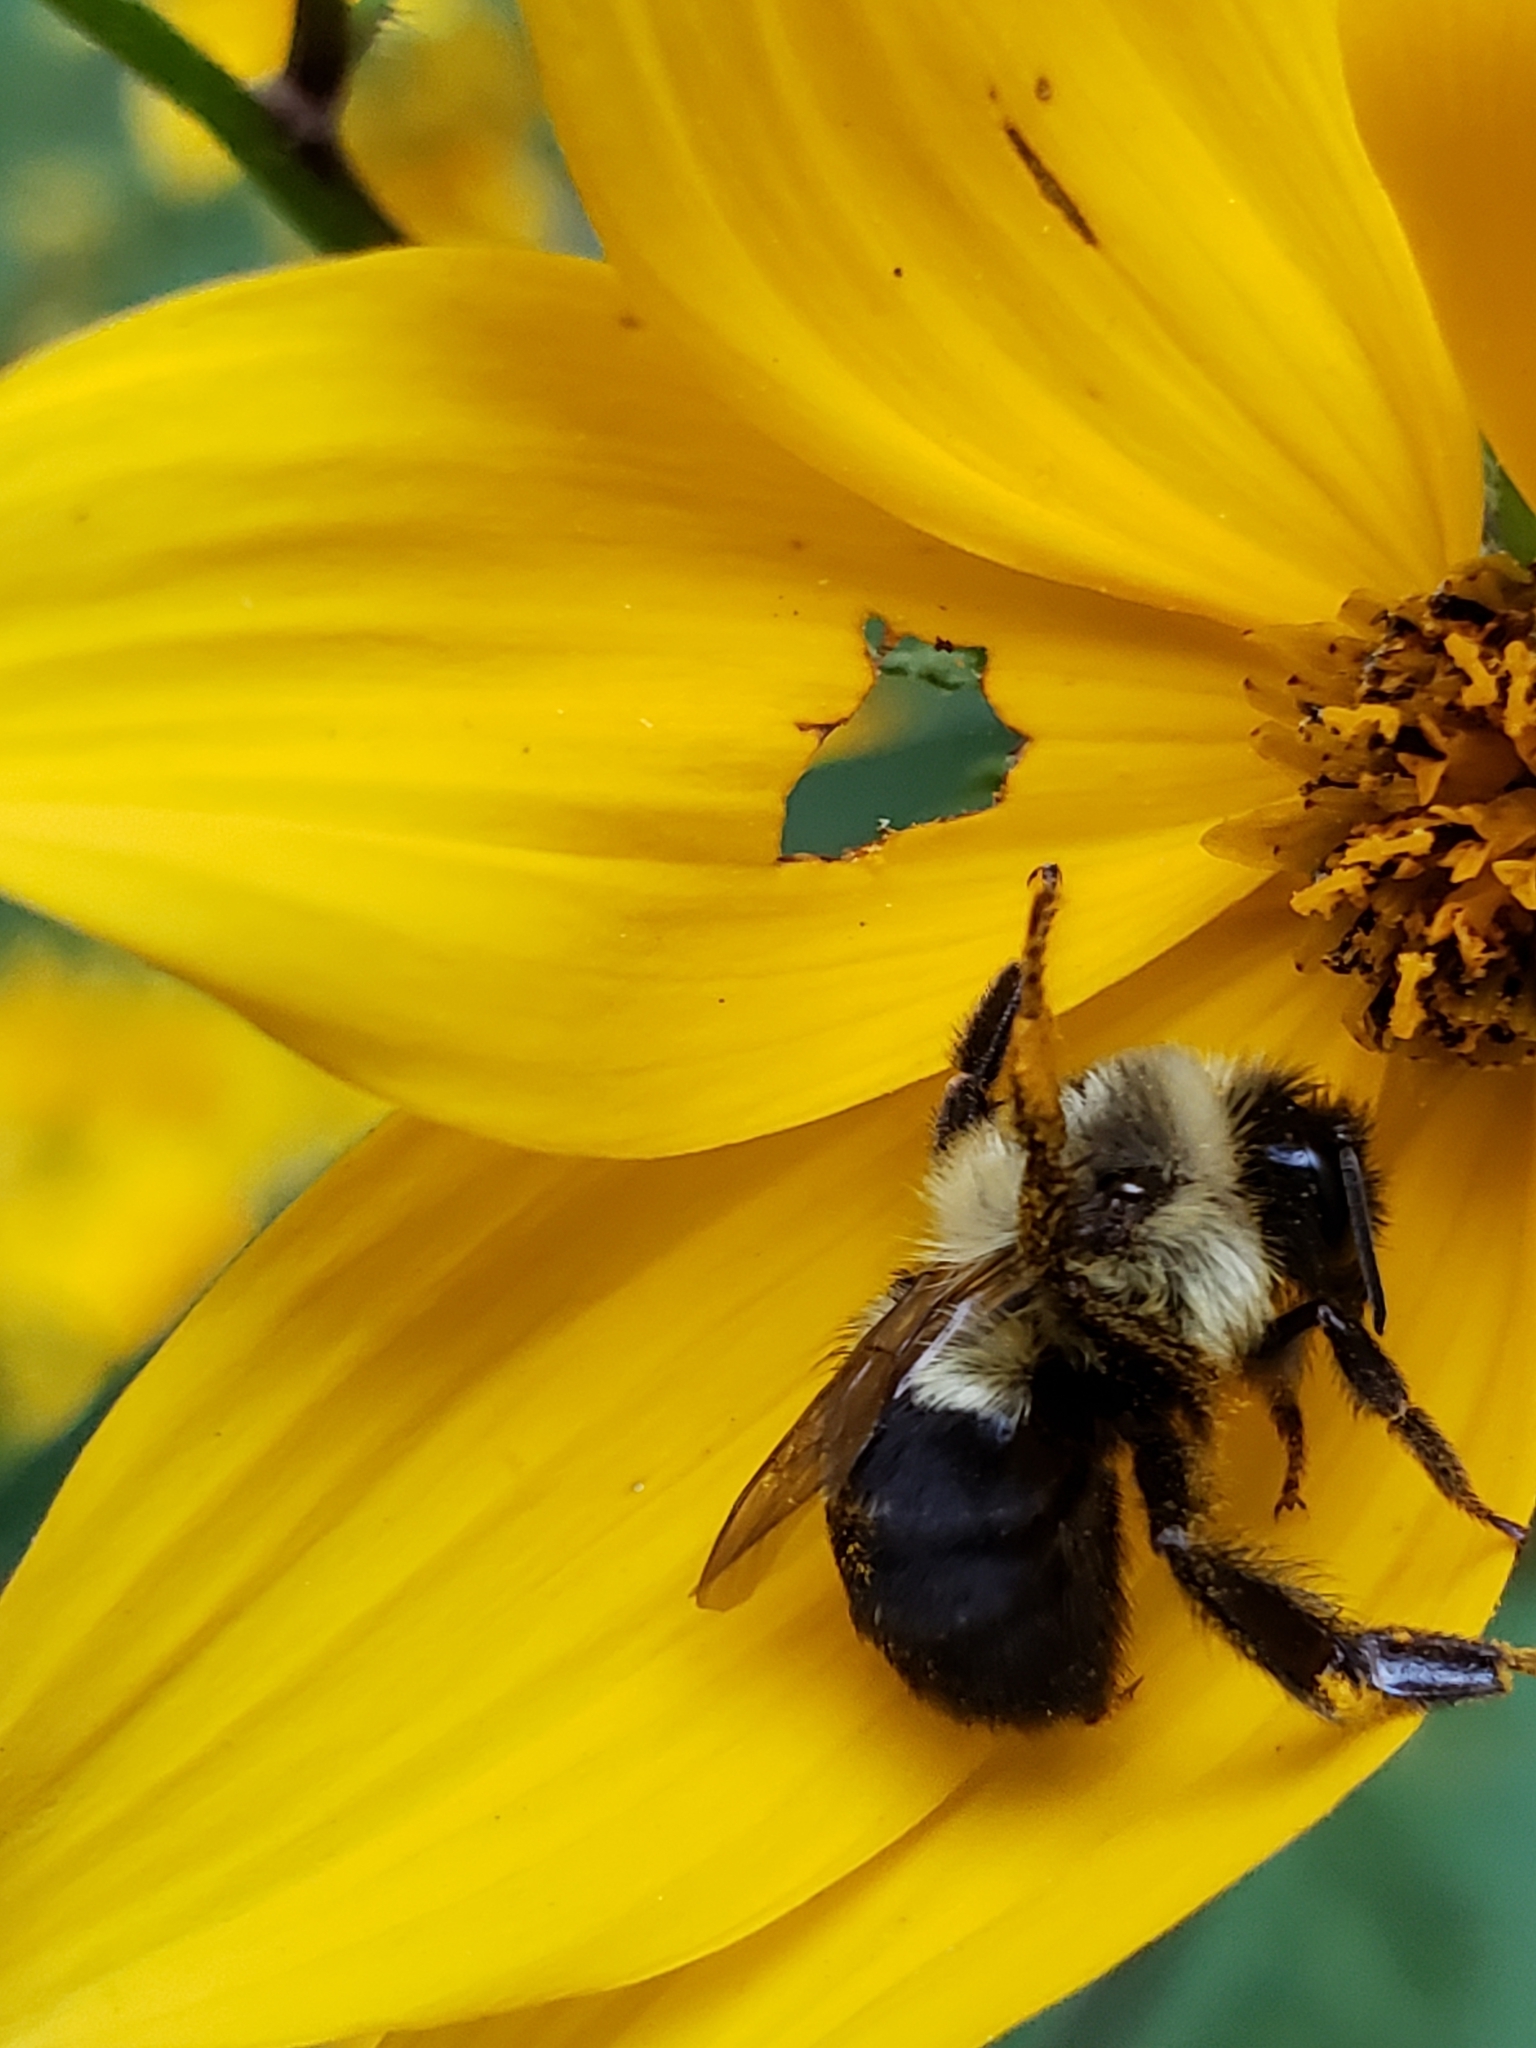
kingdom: Animalia
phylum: Arthropoda
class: Insecta
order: Hymenoptera
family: Apidae
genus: Bombus
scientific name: Bombus impatiens
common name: Common eastern bumble bee
